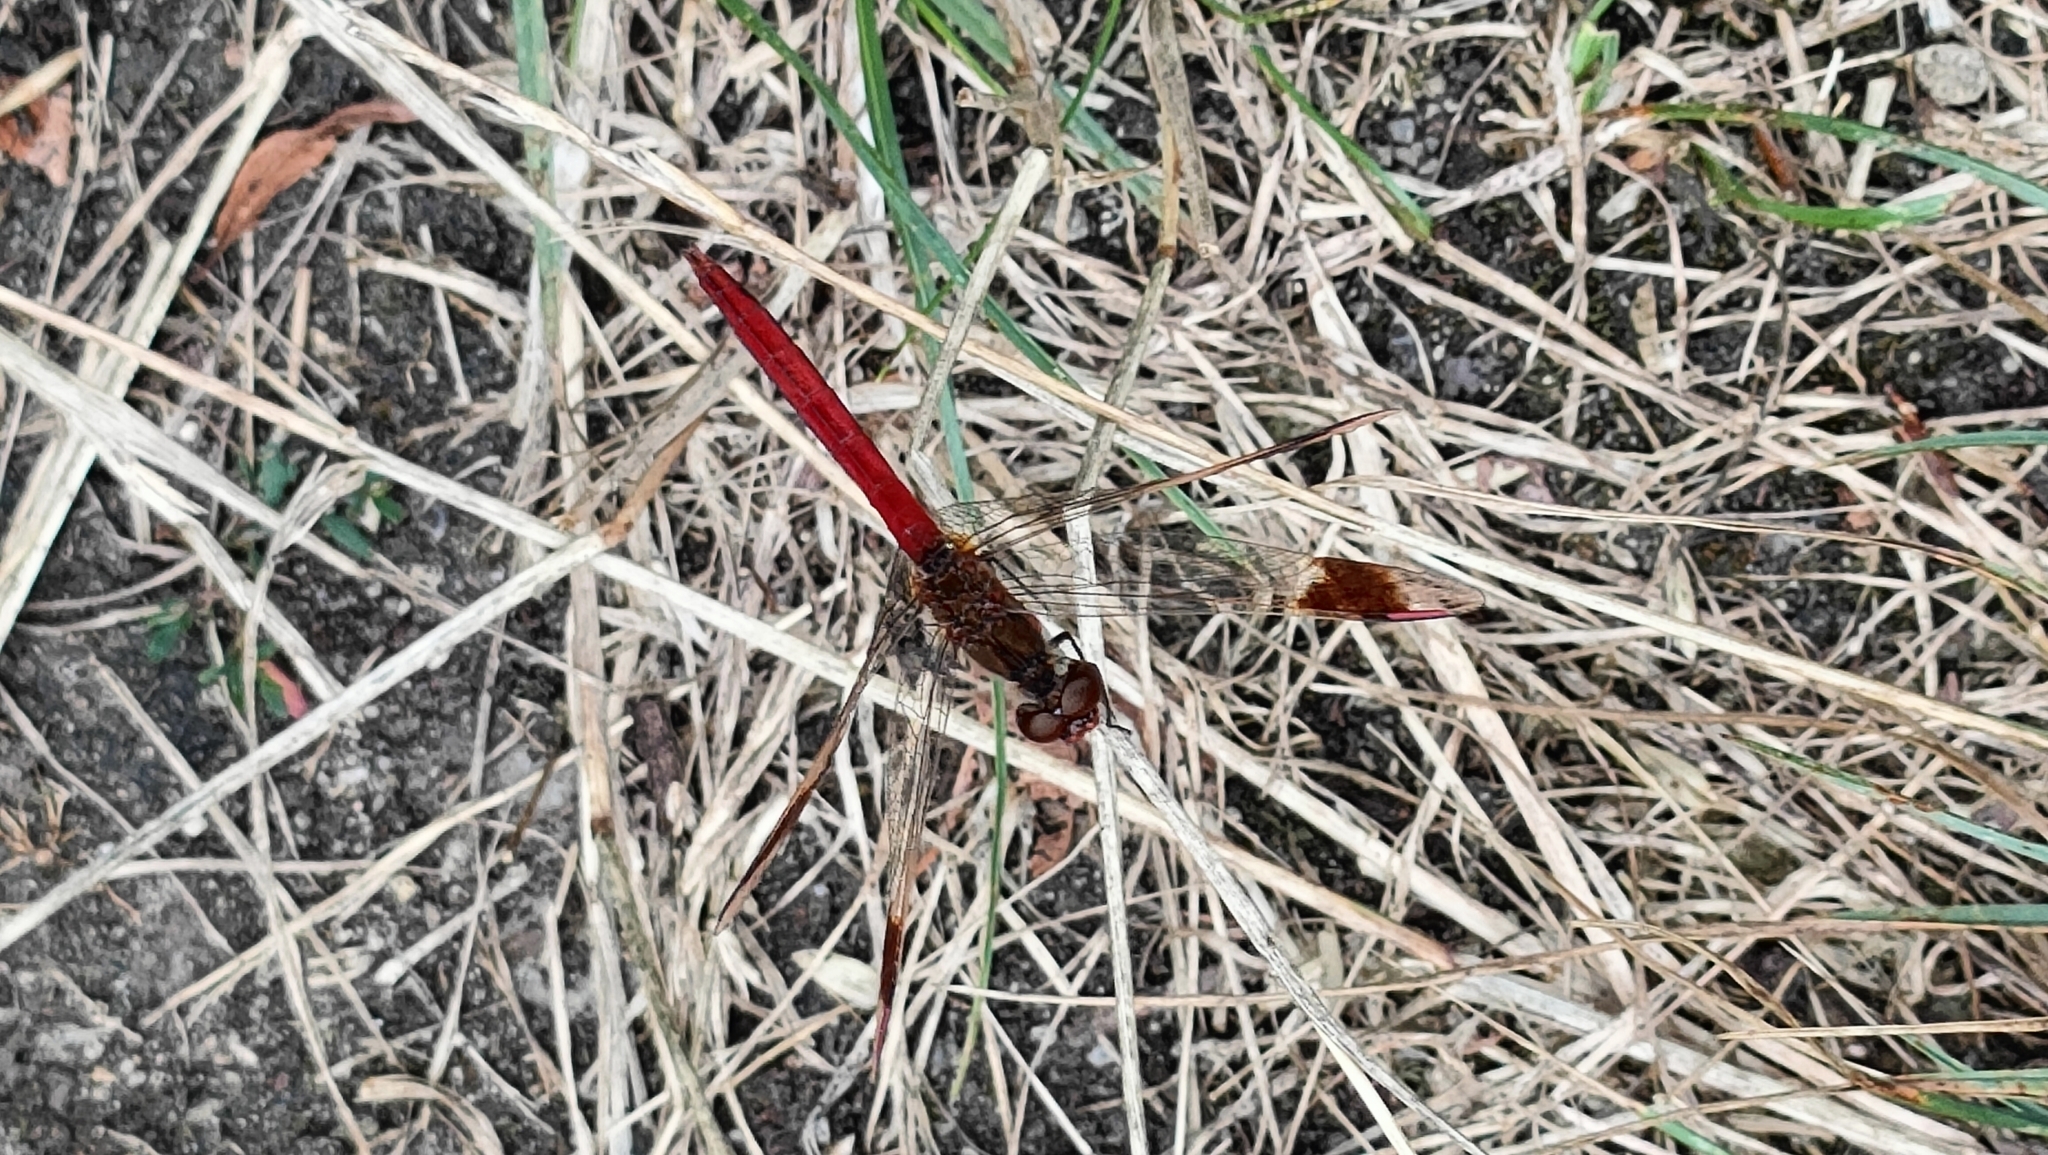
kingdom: Animalia
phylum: Arthropoda
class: Insecta
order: Odonata
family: Libellulidae
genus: Sympetrum
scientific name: Sympetrum pedemontanum
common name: Banded darter
